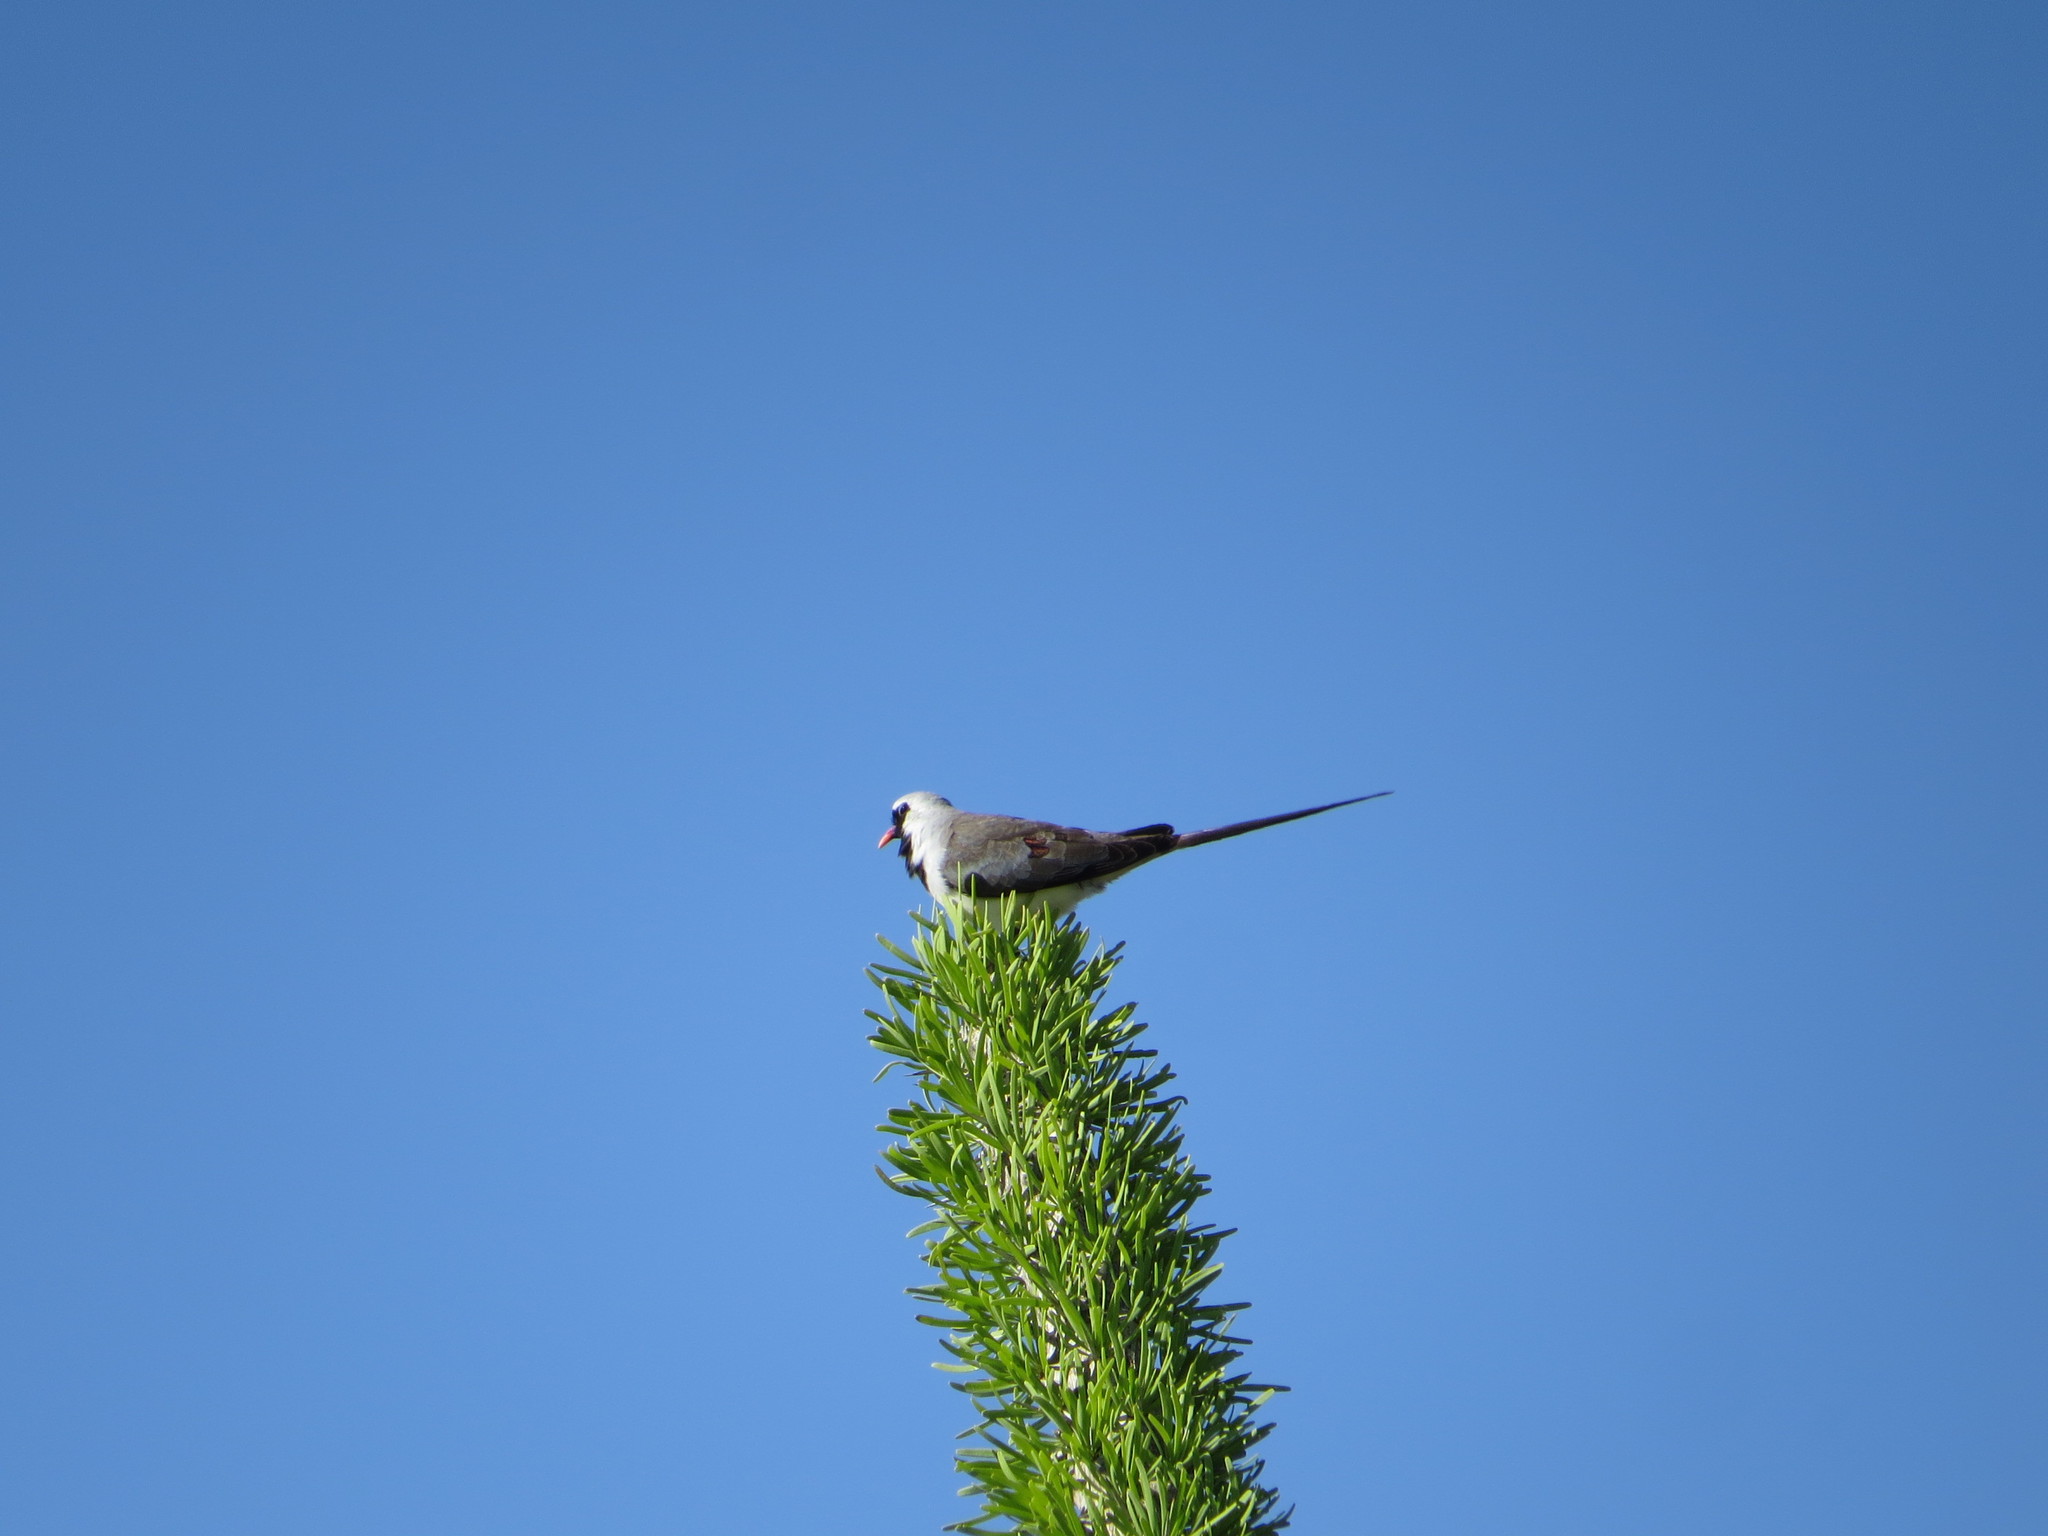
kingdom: Animalia
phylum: Chordata
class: Aves
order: Columbiformes
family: Columbidae
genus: Oena
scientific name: Oena capensis
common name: Namaqua dove
